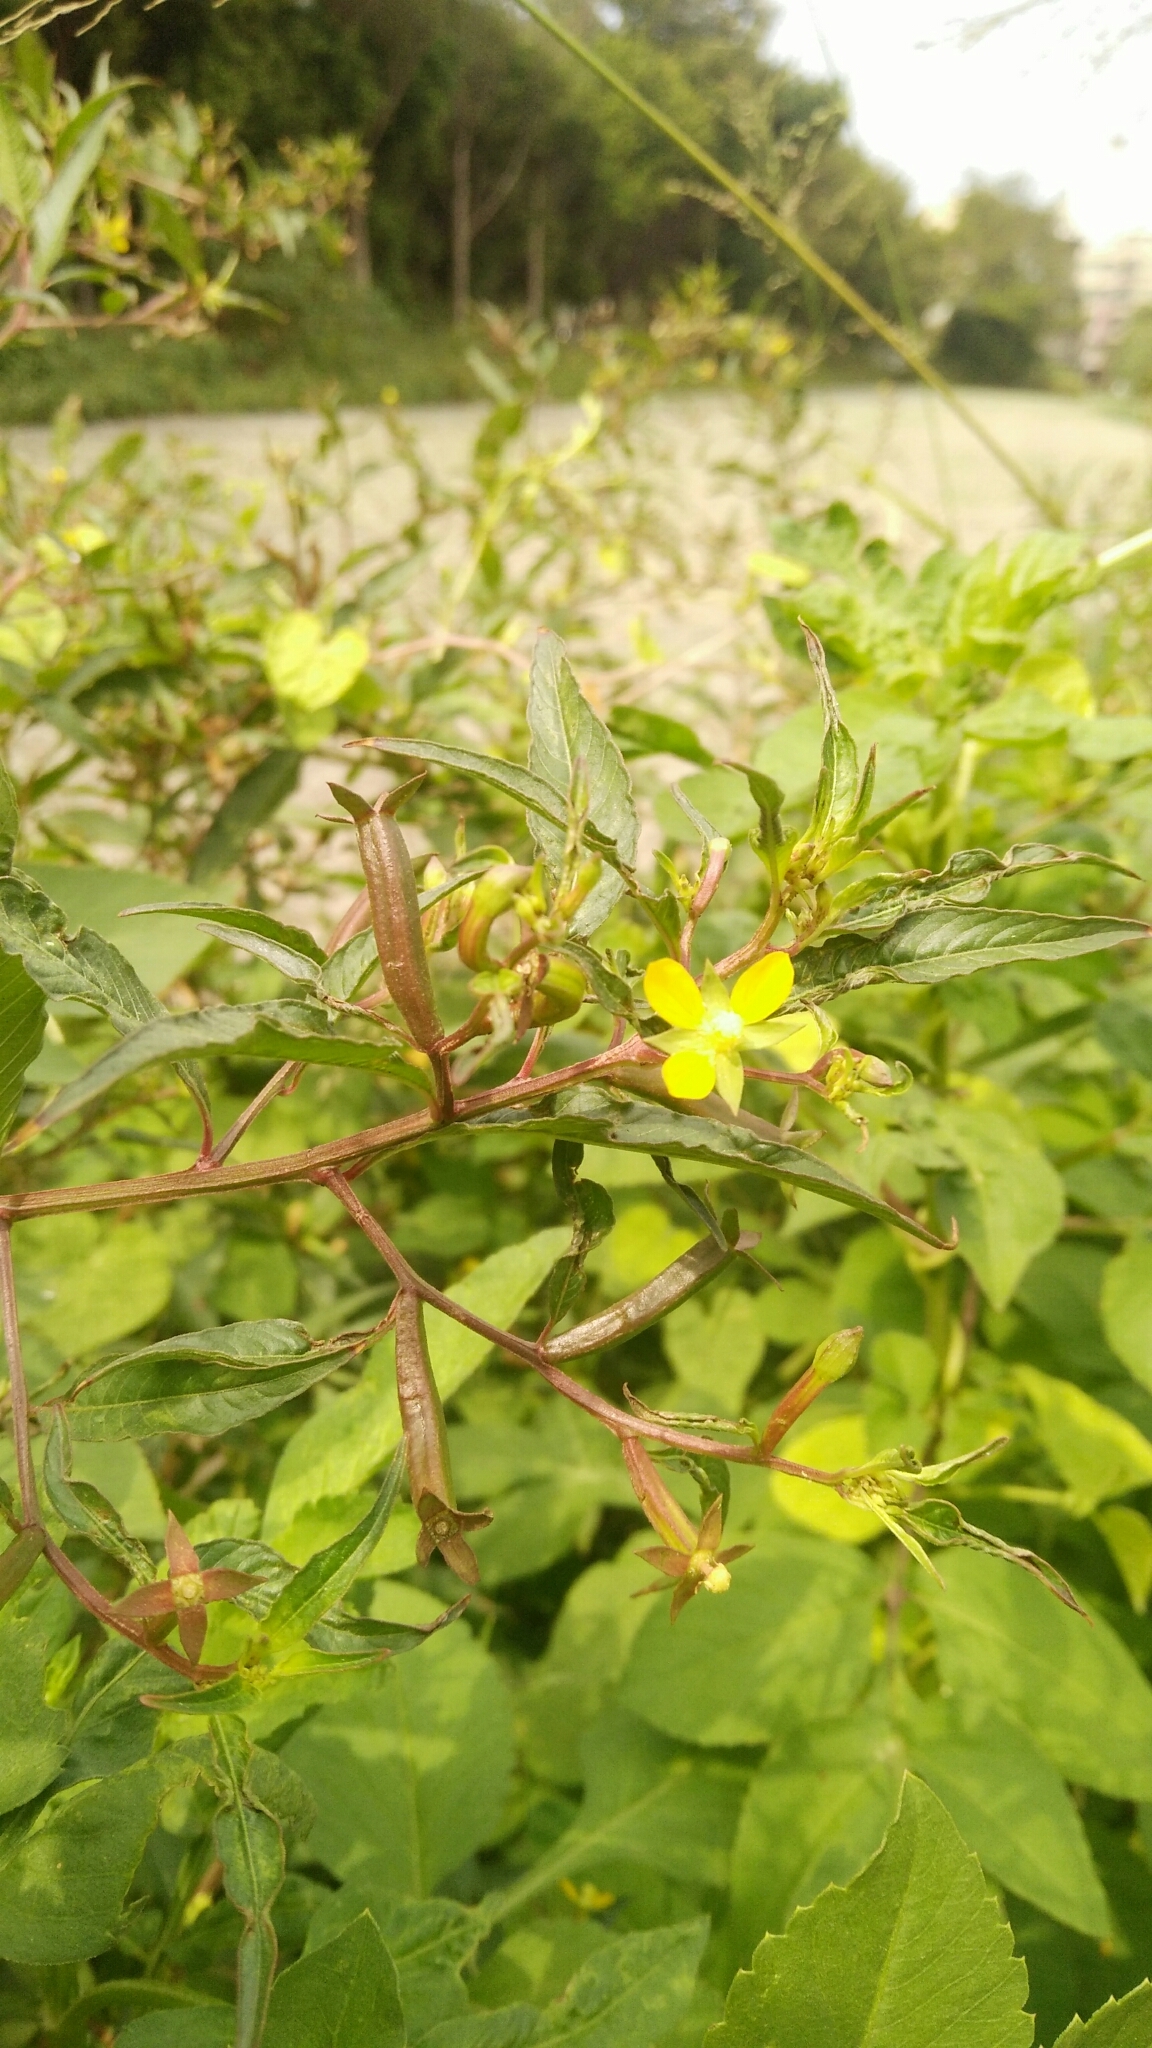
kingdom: Plantae
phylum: Tracheophyta
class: Magnoliopsida
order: Myrtales
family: Onagraceae
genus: Ludwigia
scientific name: Ludwigia hyssopifolia
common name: Linear leaf water primrose
